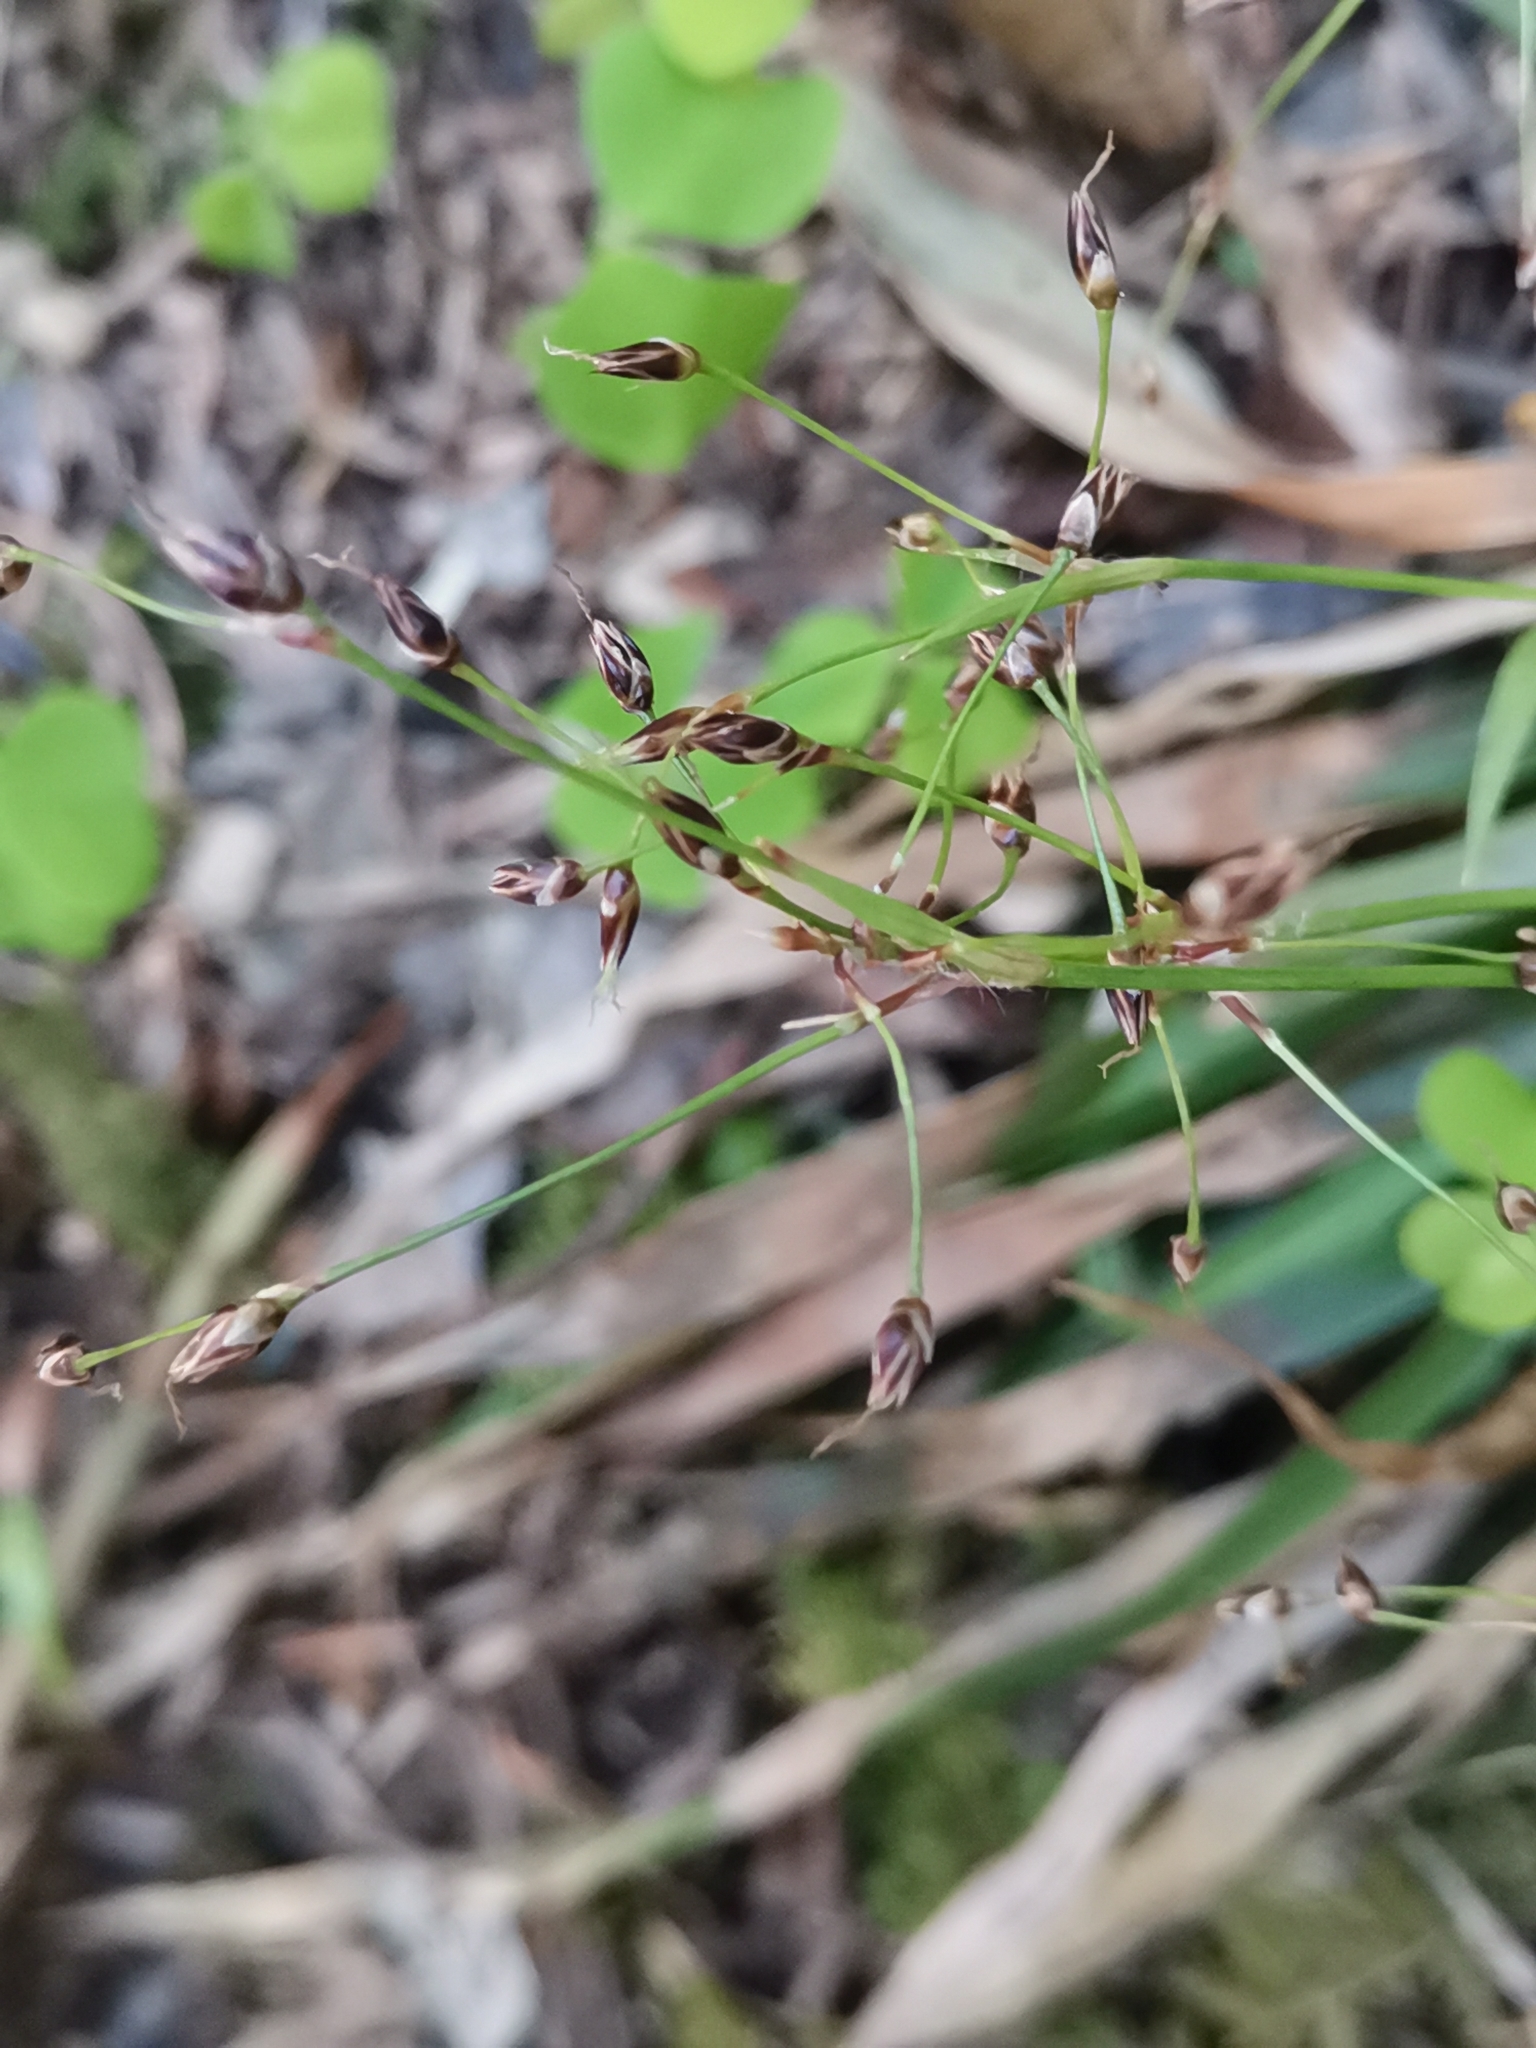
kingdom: Plantae
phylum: Tracheophyta
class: Liliopsida
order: Poales
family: Juncaceae
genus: Luzula
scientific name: Luzula pilosa
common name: Hairy wood-rush
